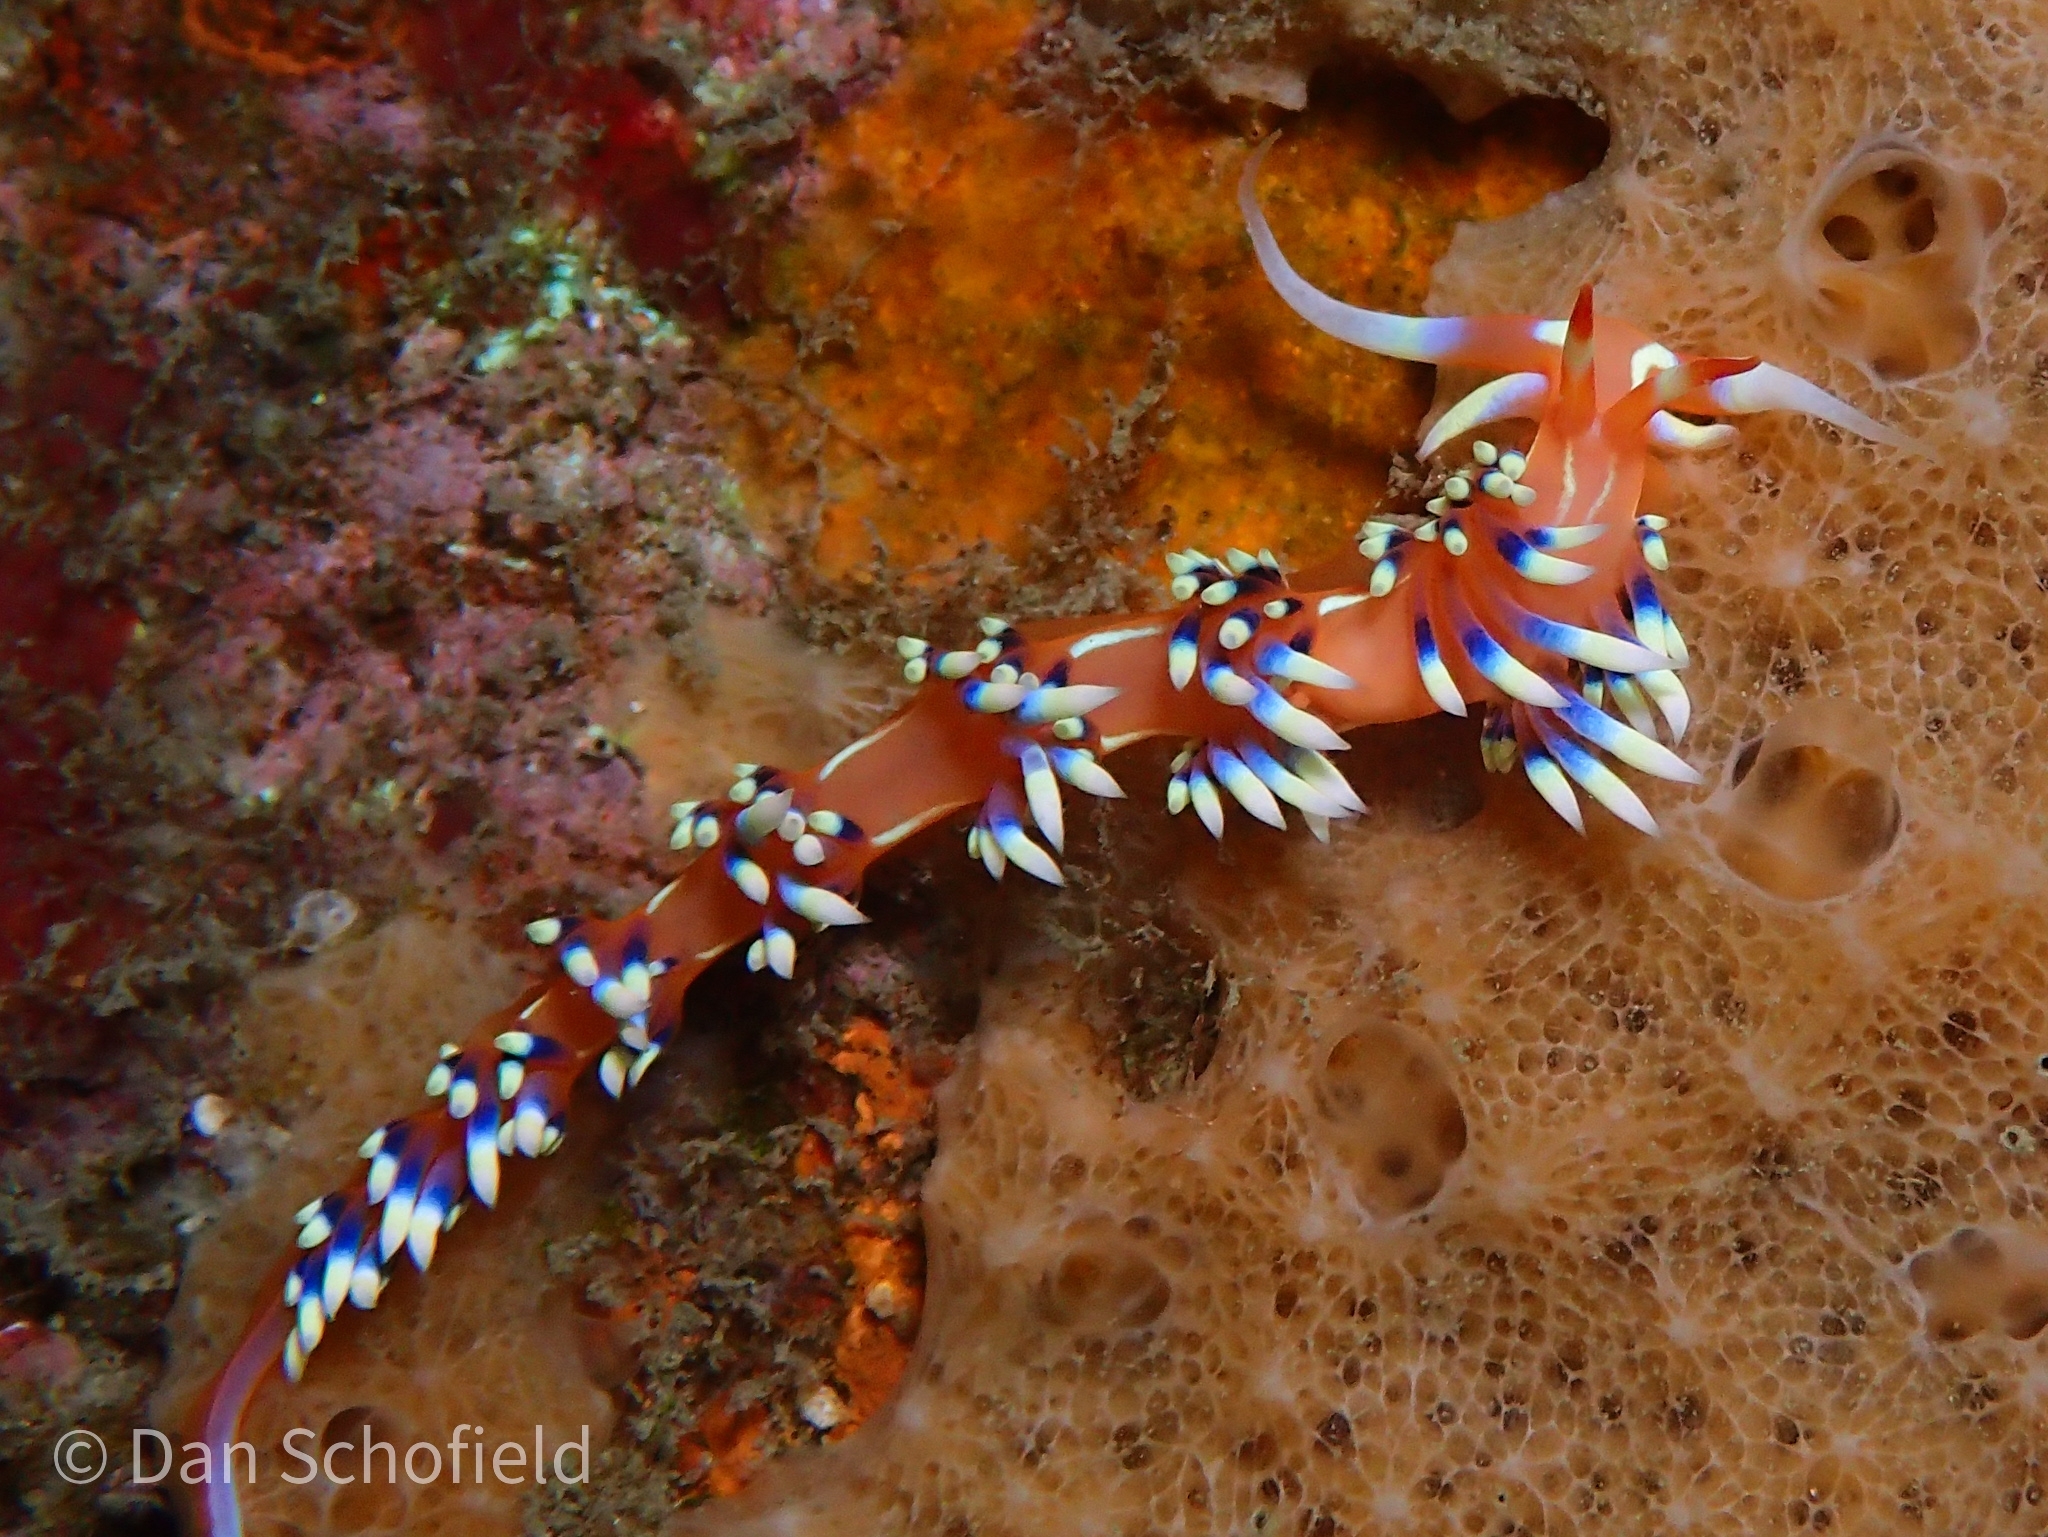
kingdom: Animalia
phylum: Mollusca
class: Gastropoda
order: Nudibranchia
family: Facelinidae
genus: Caloria
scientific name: Caloria indica
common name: Sea slug
